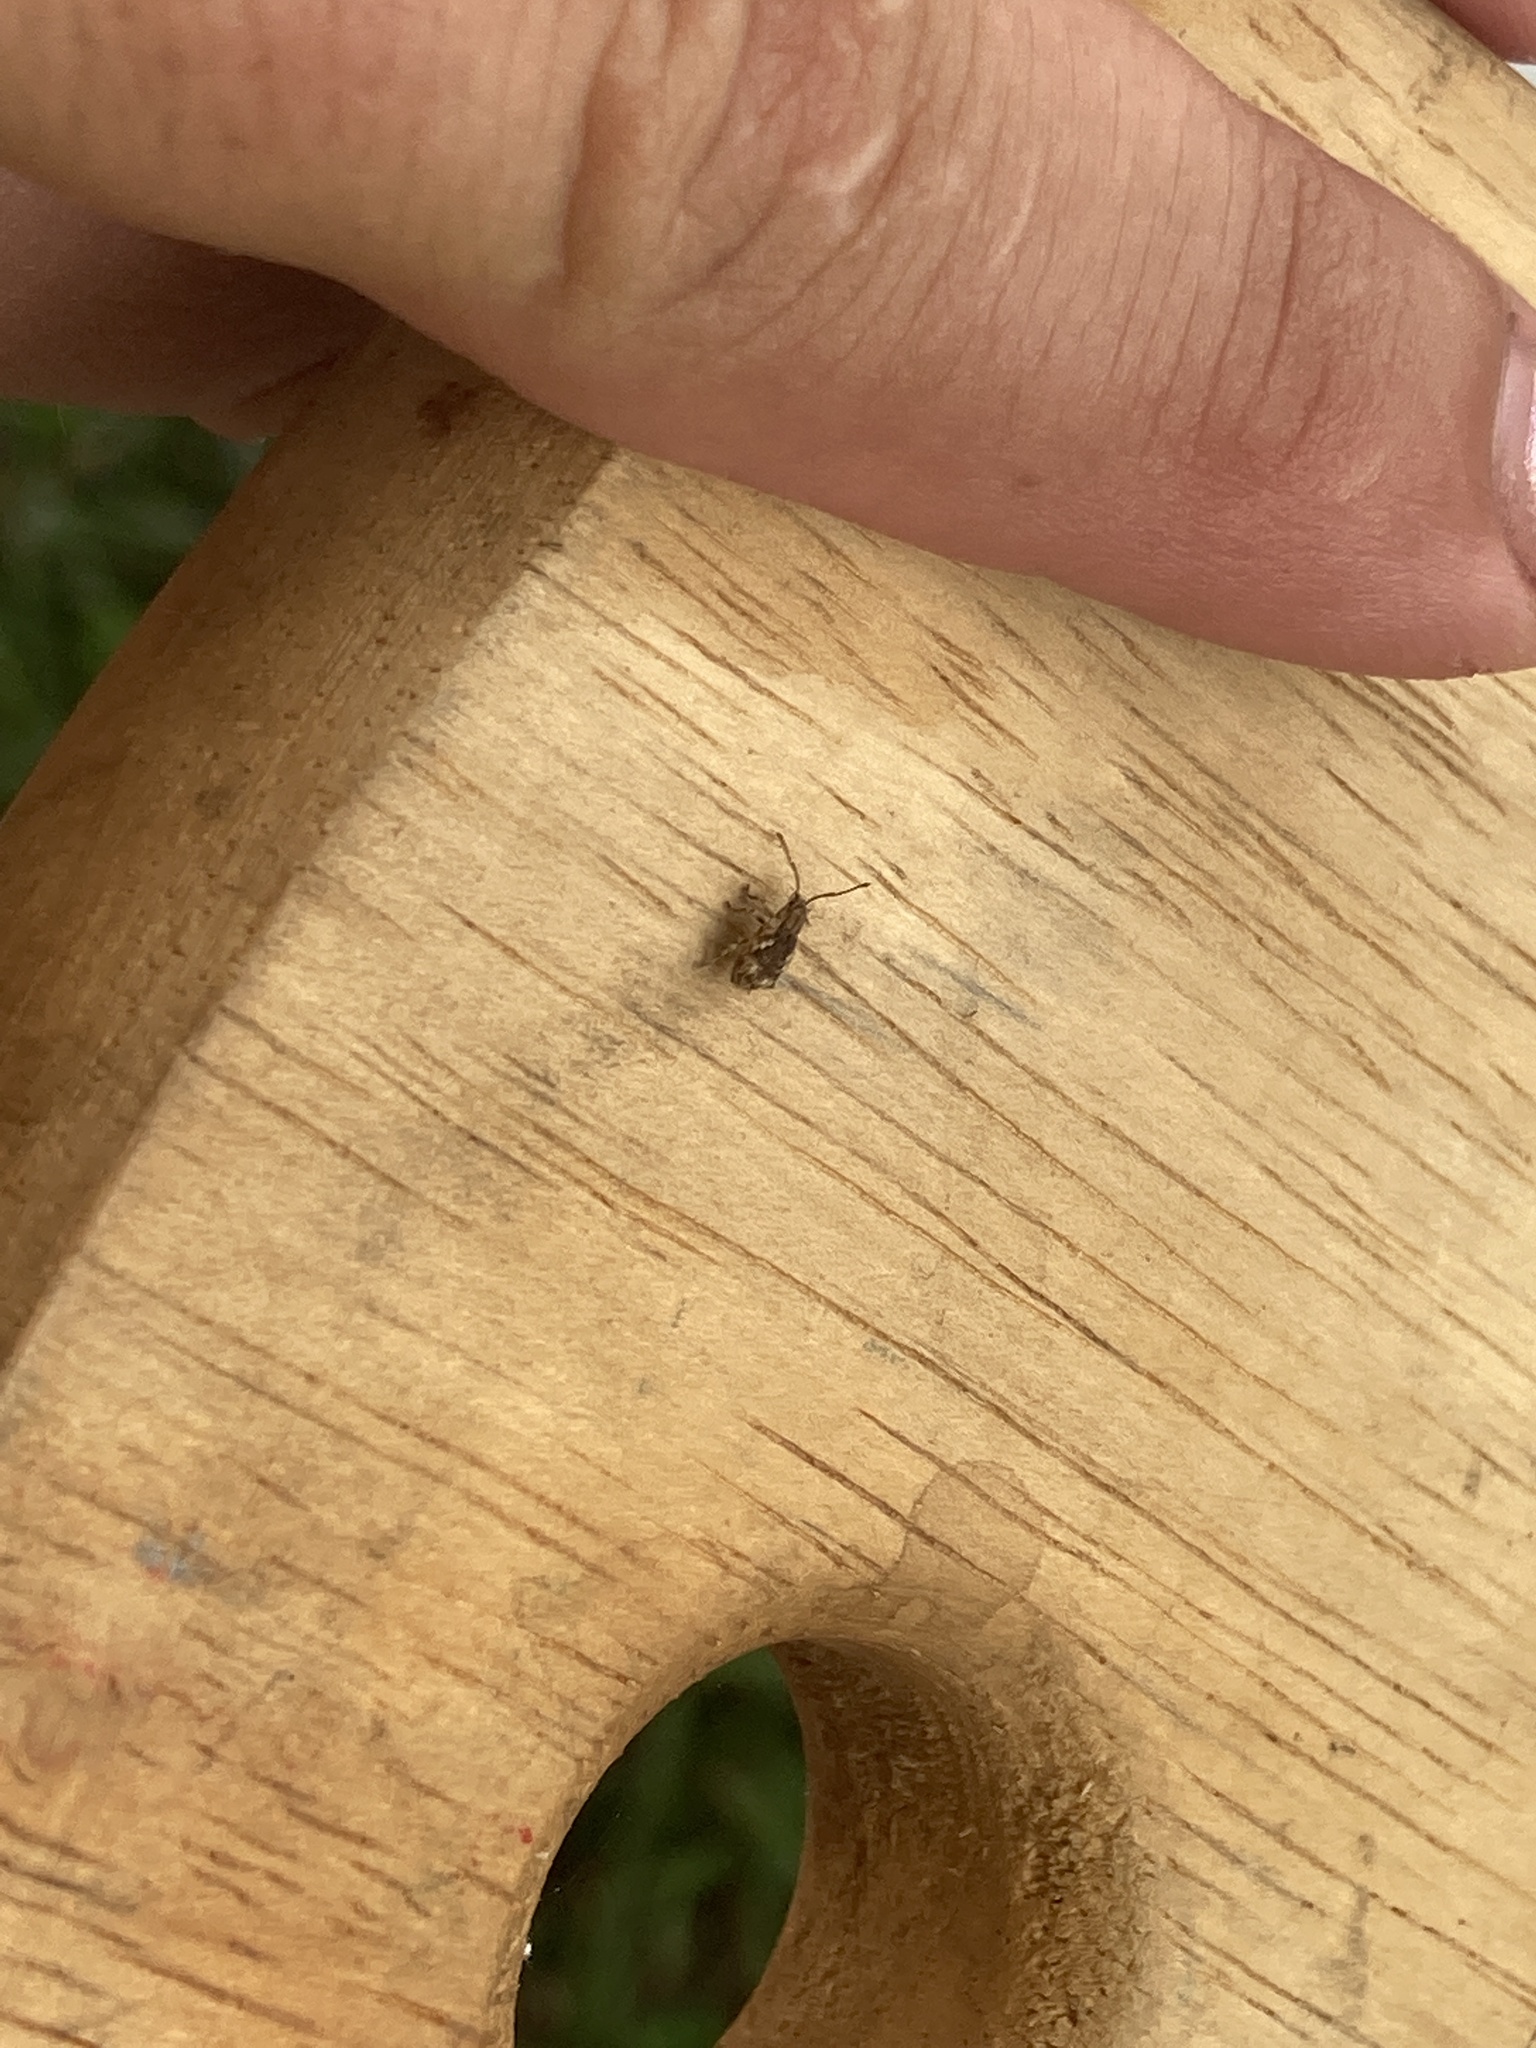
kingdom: Animalia
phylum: Arthropoda
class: Insecta
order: Coleoptera
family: Curculionidae
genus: Pseudoedophrys
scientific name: Pseudoedophrys hilleri
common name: Weevil
